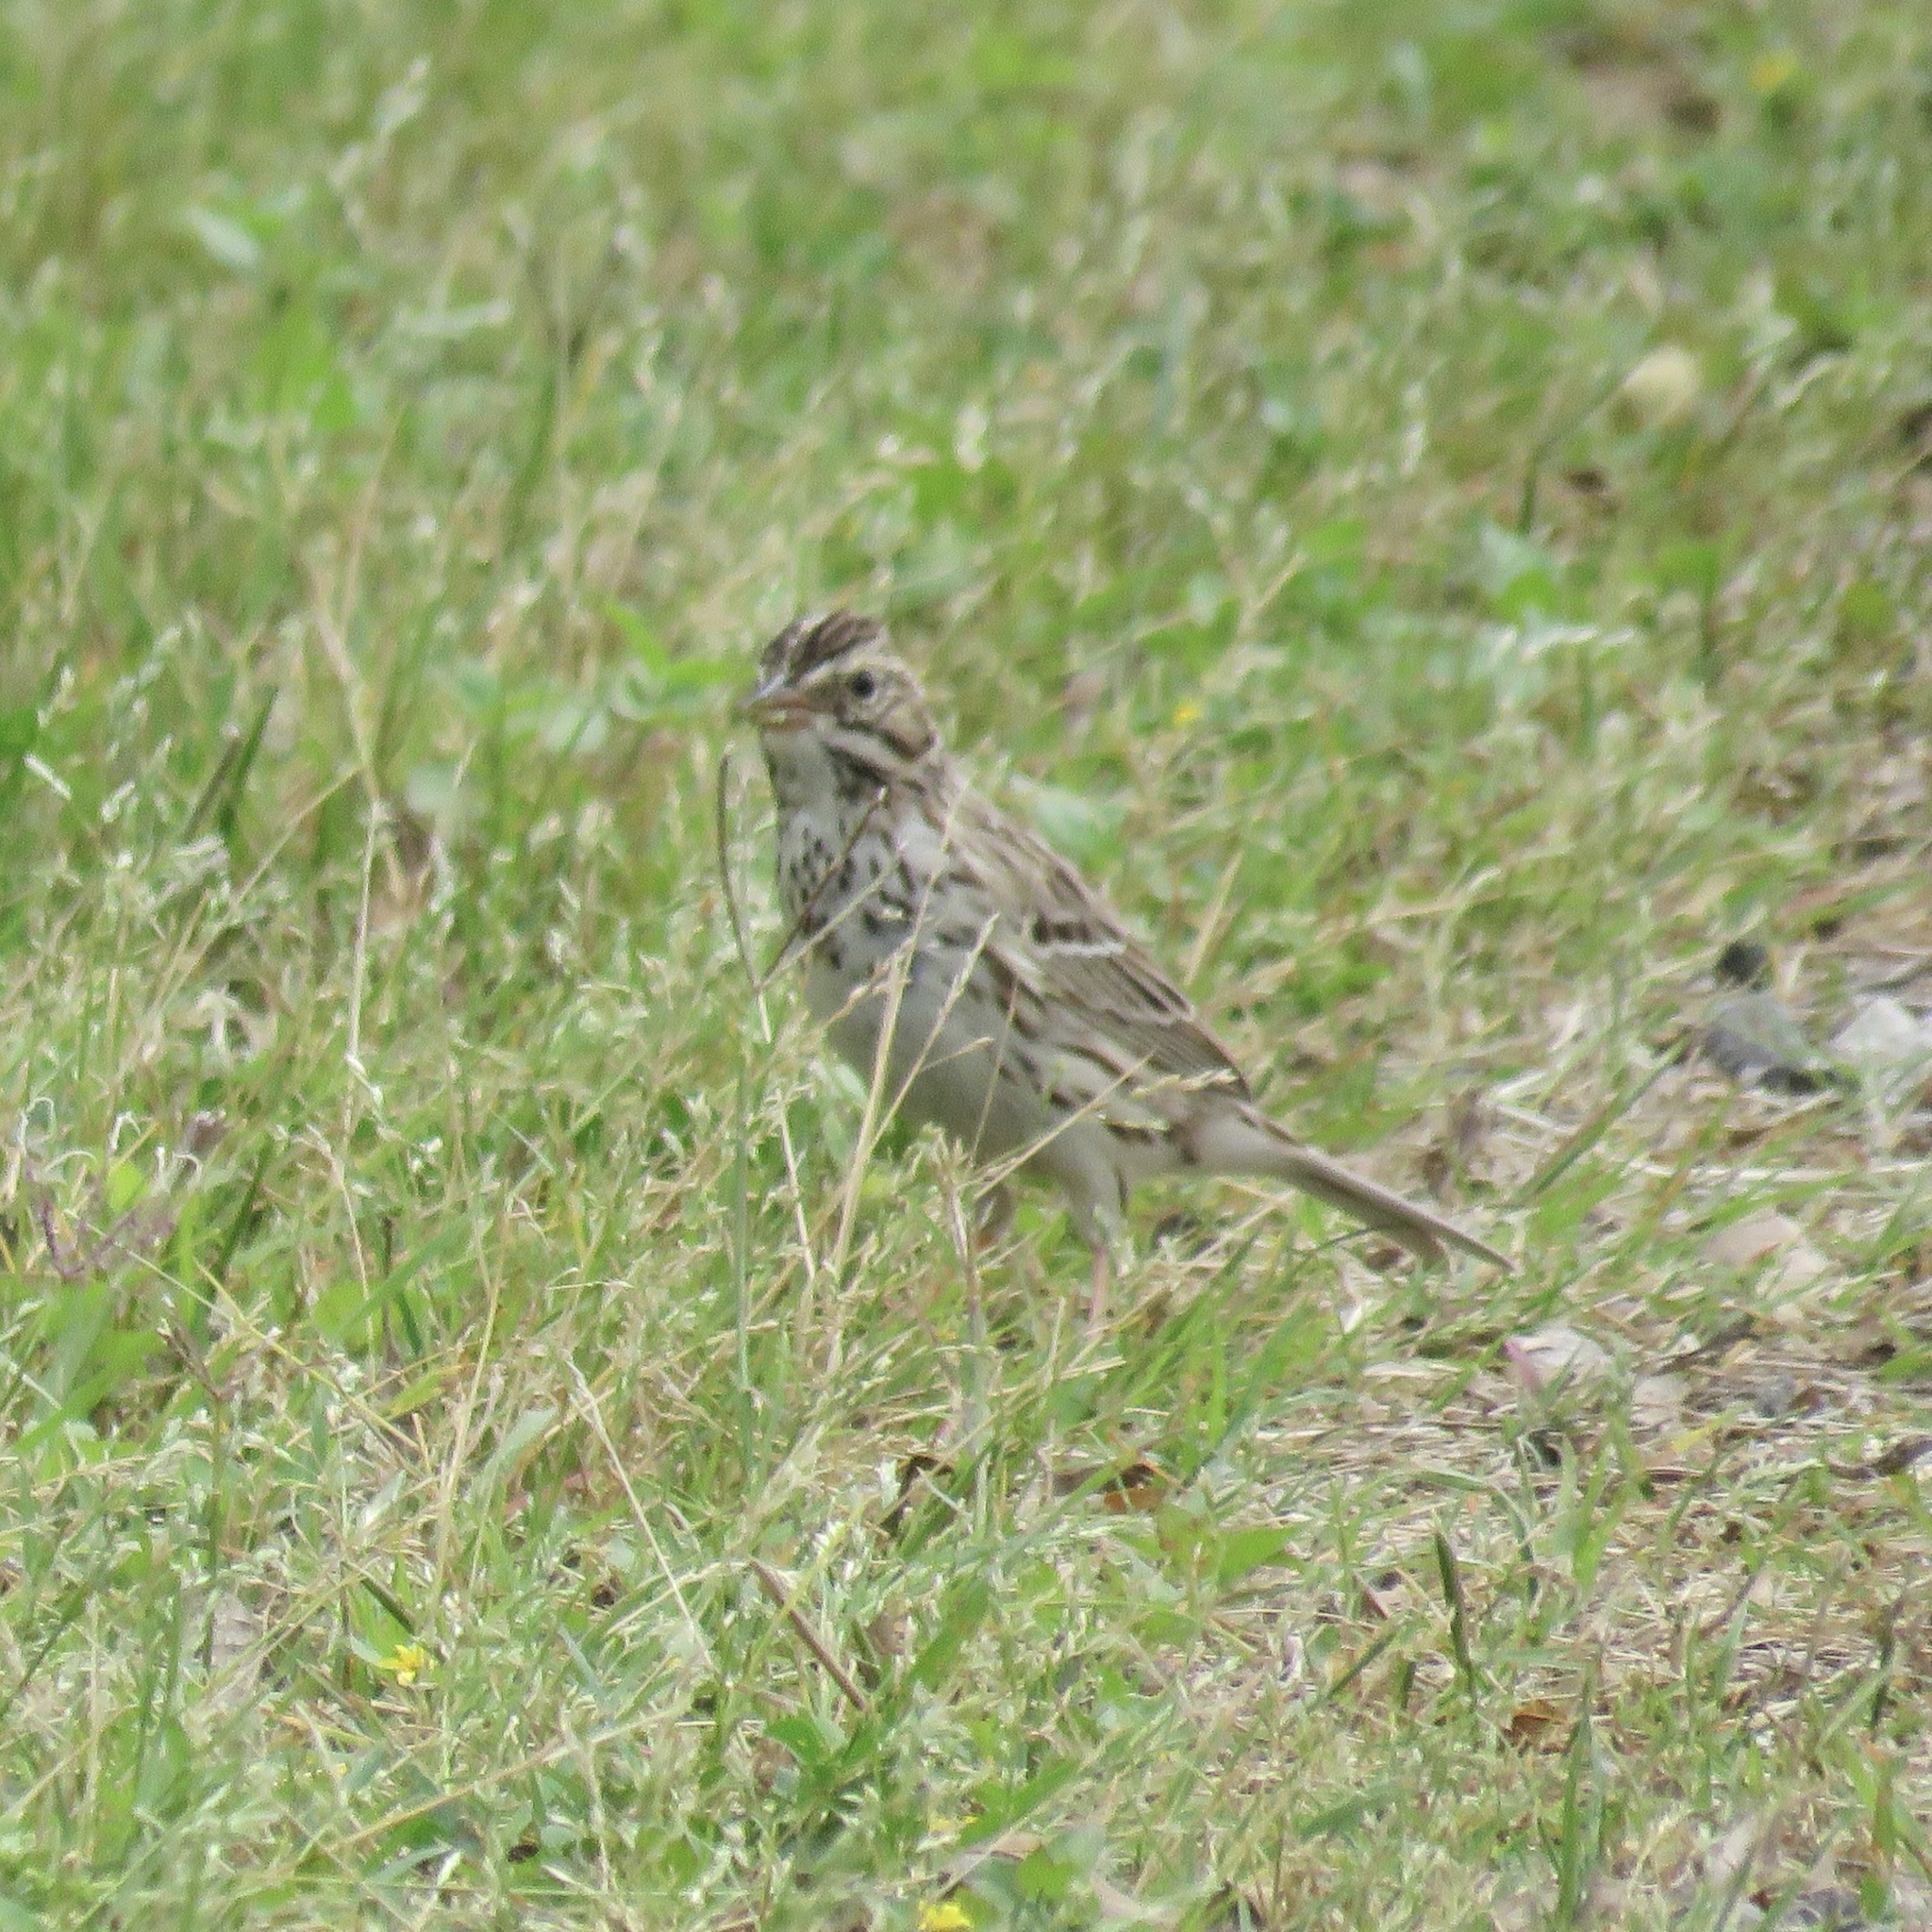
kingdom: Animalia
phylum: Chordata
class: Aves
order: Passeriformes
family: Passerellidae
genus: Passerculus
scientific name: Passerculus sandwichensis
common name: Savannah sparrow
